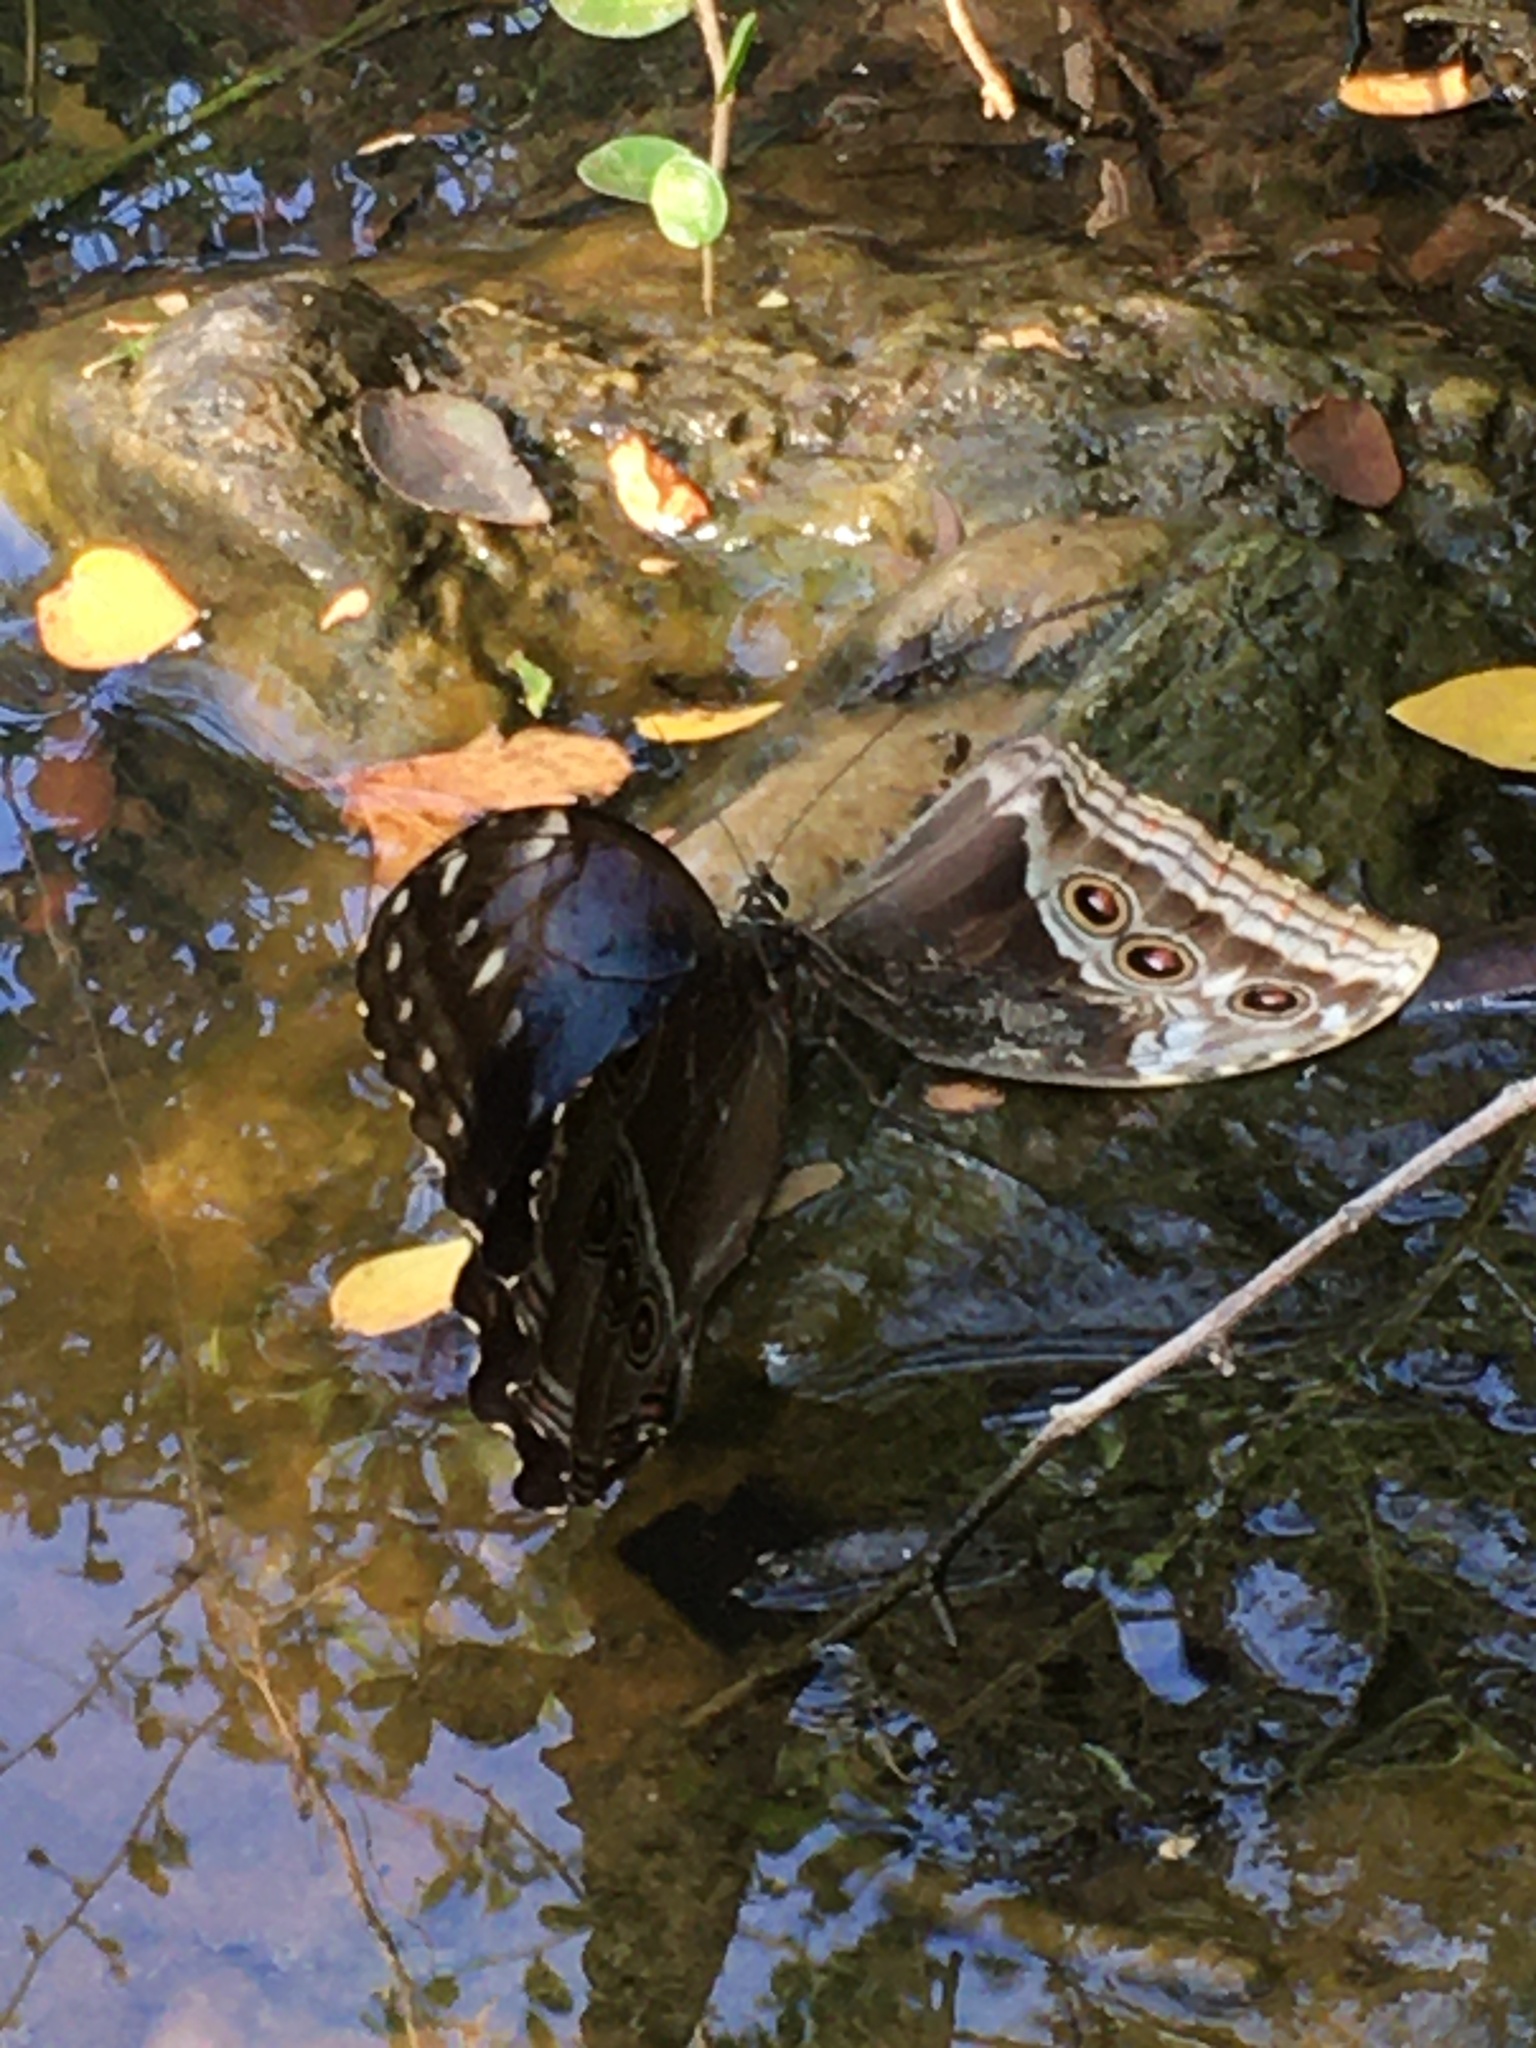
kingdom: Animalia
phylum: Arthropoda
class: Insecta
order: Lepidoptera
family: Nymphalidae
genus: Morpho
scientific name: Morpho helenor
